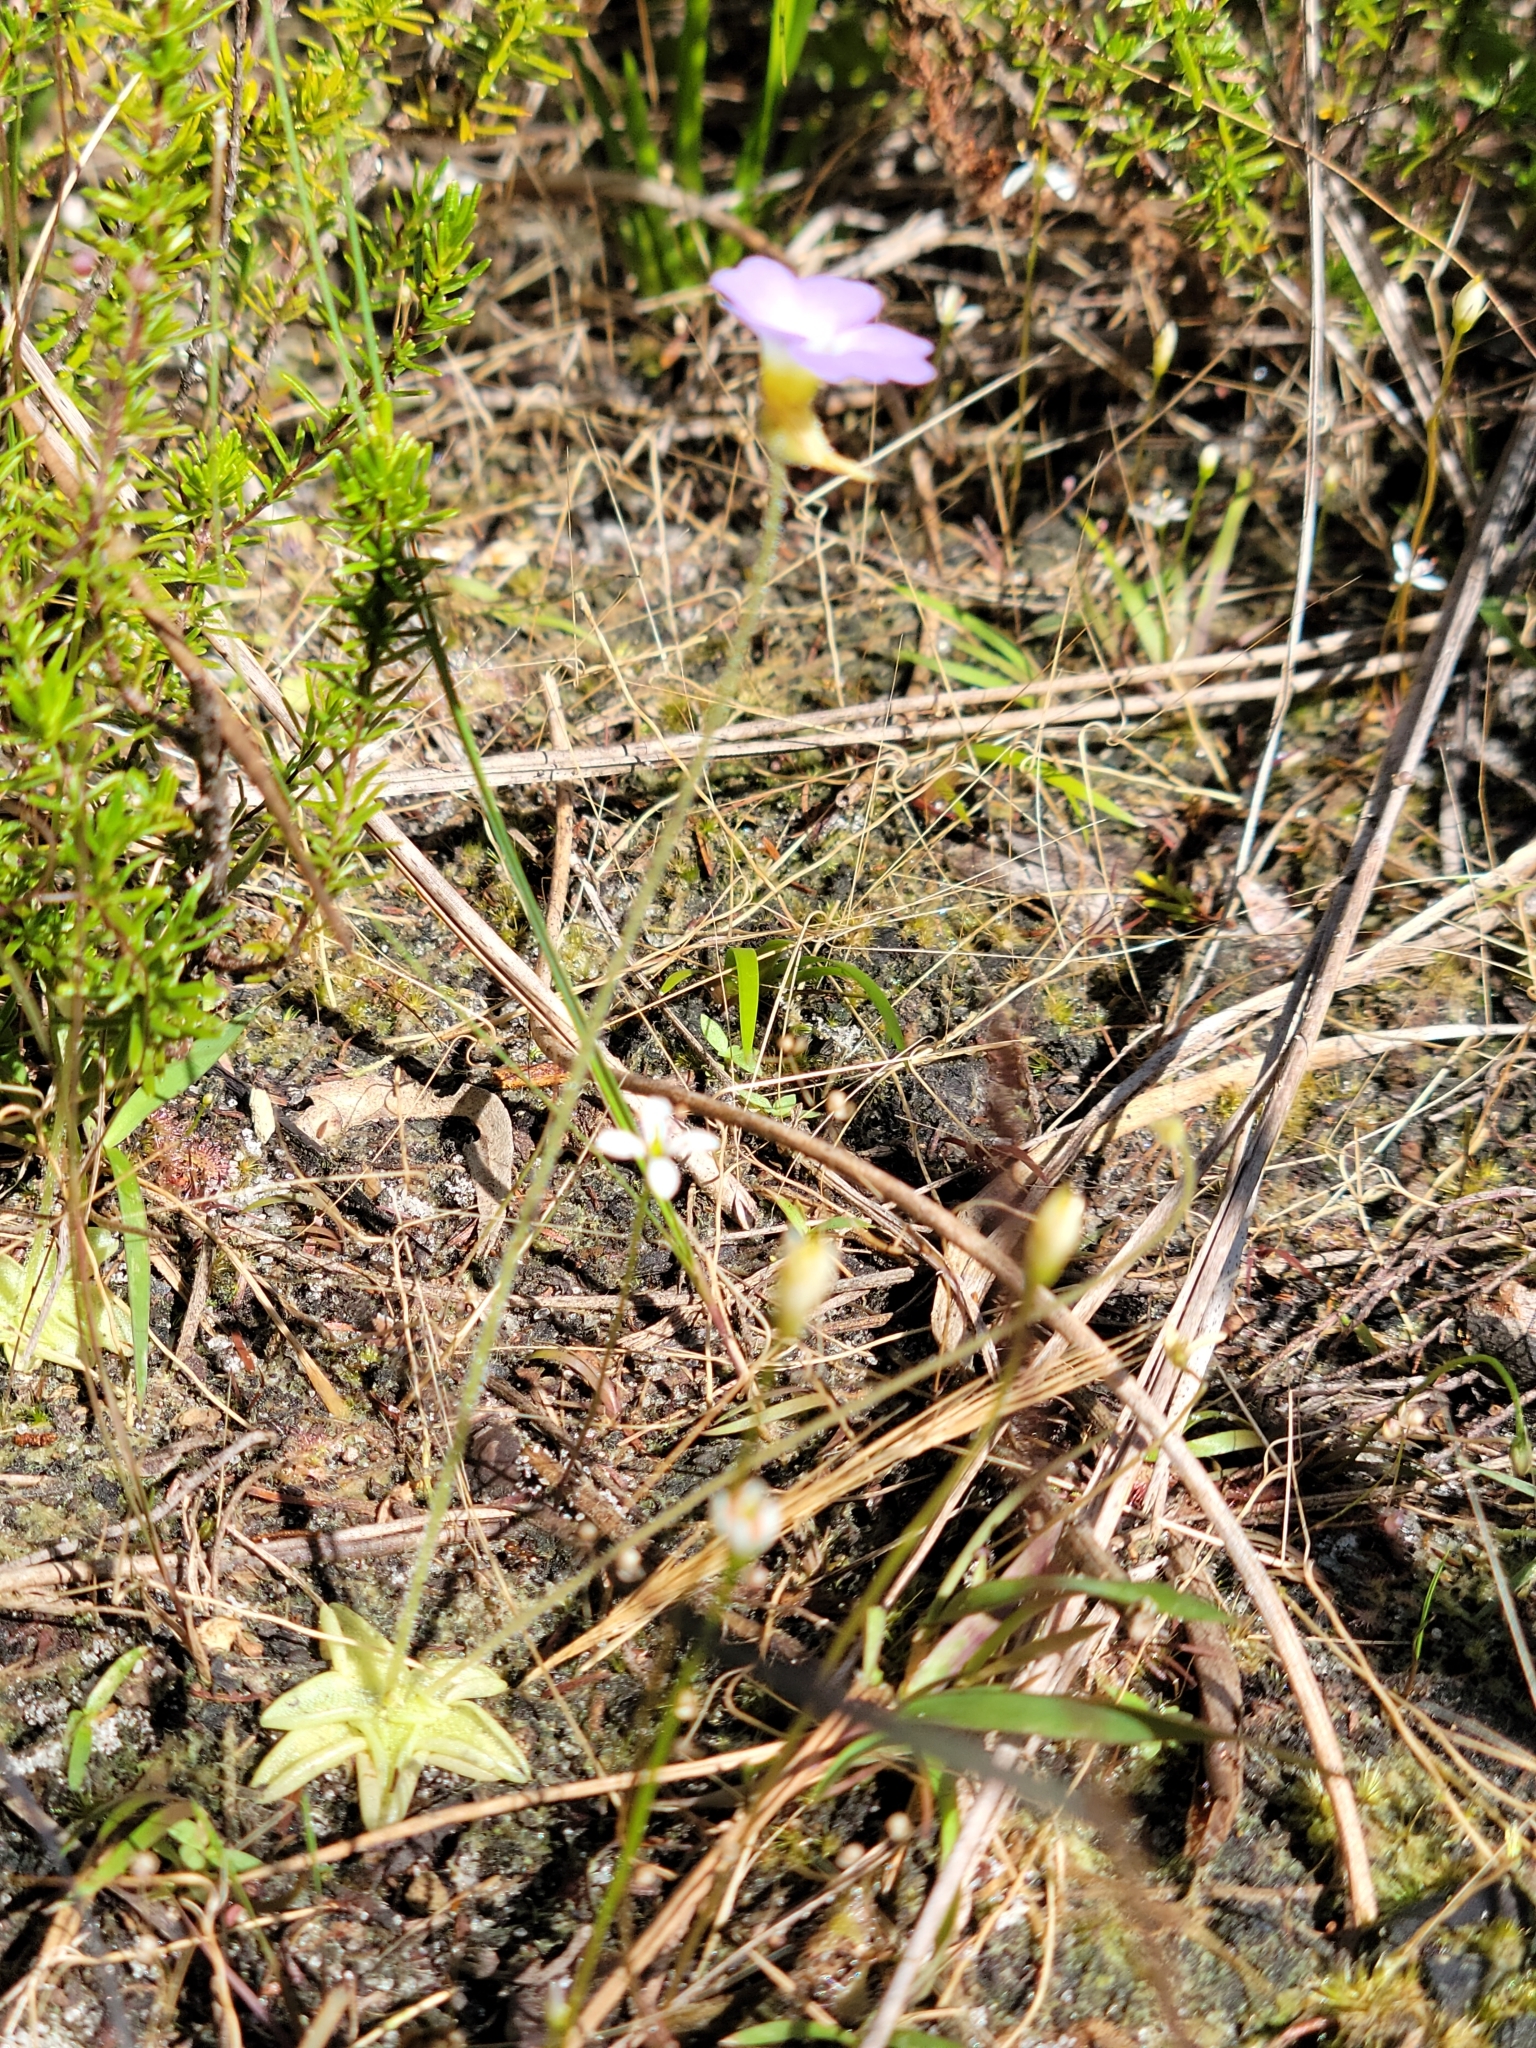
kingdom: Plantae
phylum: Tracheophyta
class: Magnoliopsida
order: Lamiales
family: Lentibulariaceae
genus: Pinguicula
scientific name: Pinguicula pumila
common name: Small butterwort
